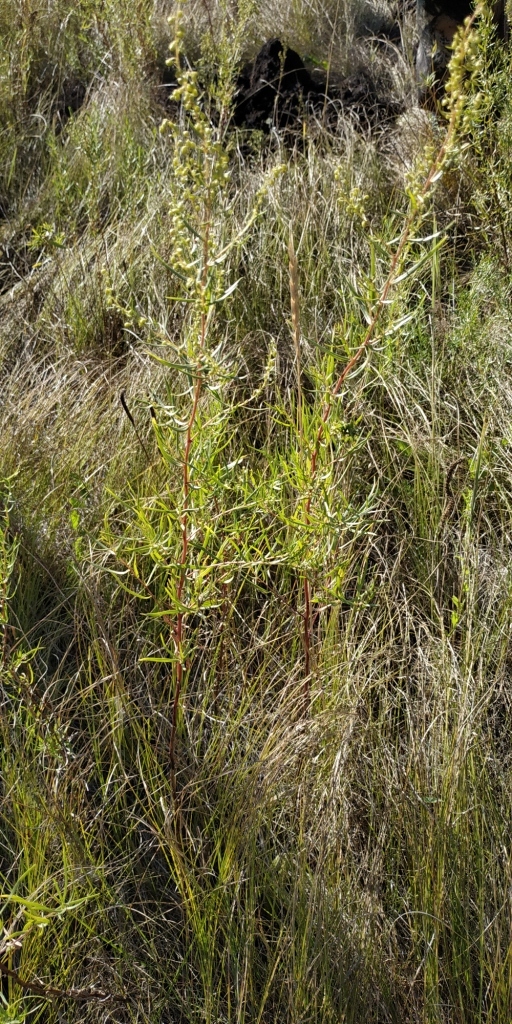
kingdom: Plantae
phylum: Tracheophyta
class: Magnoliopsida
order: Asterales
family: Asteraceae
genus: Artemisia
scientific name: Artemisia dracunculus
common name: Tarragon
